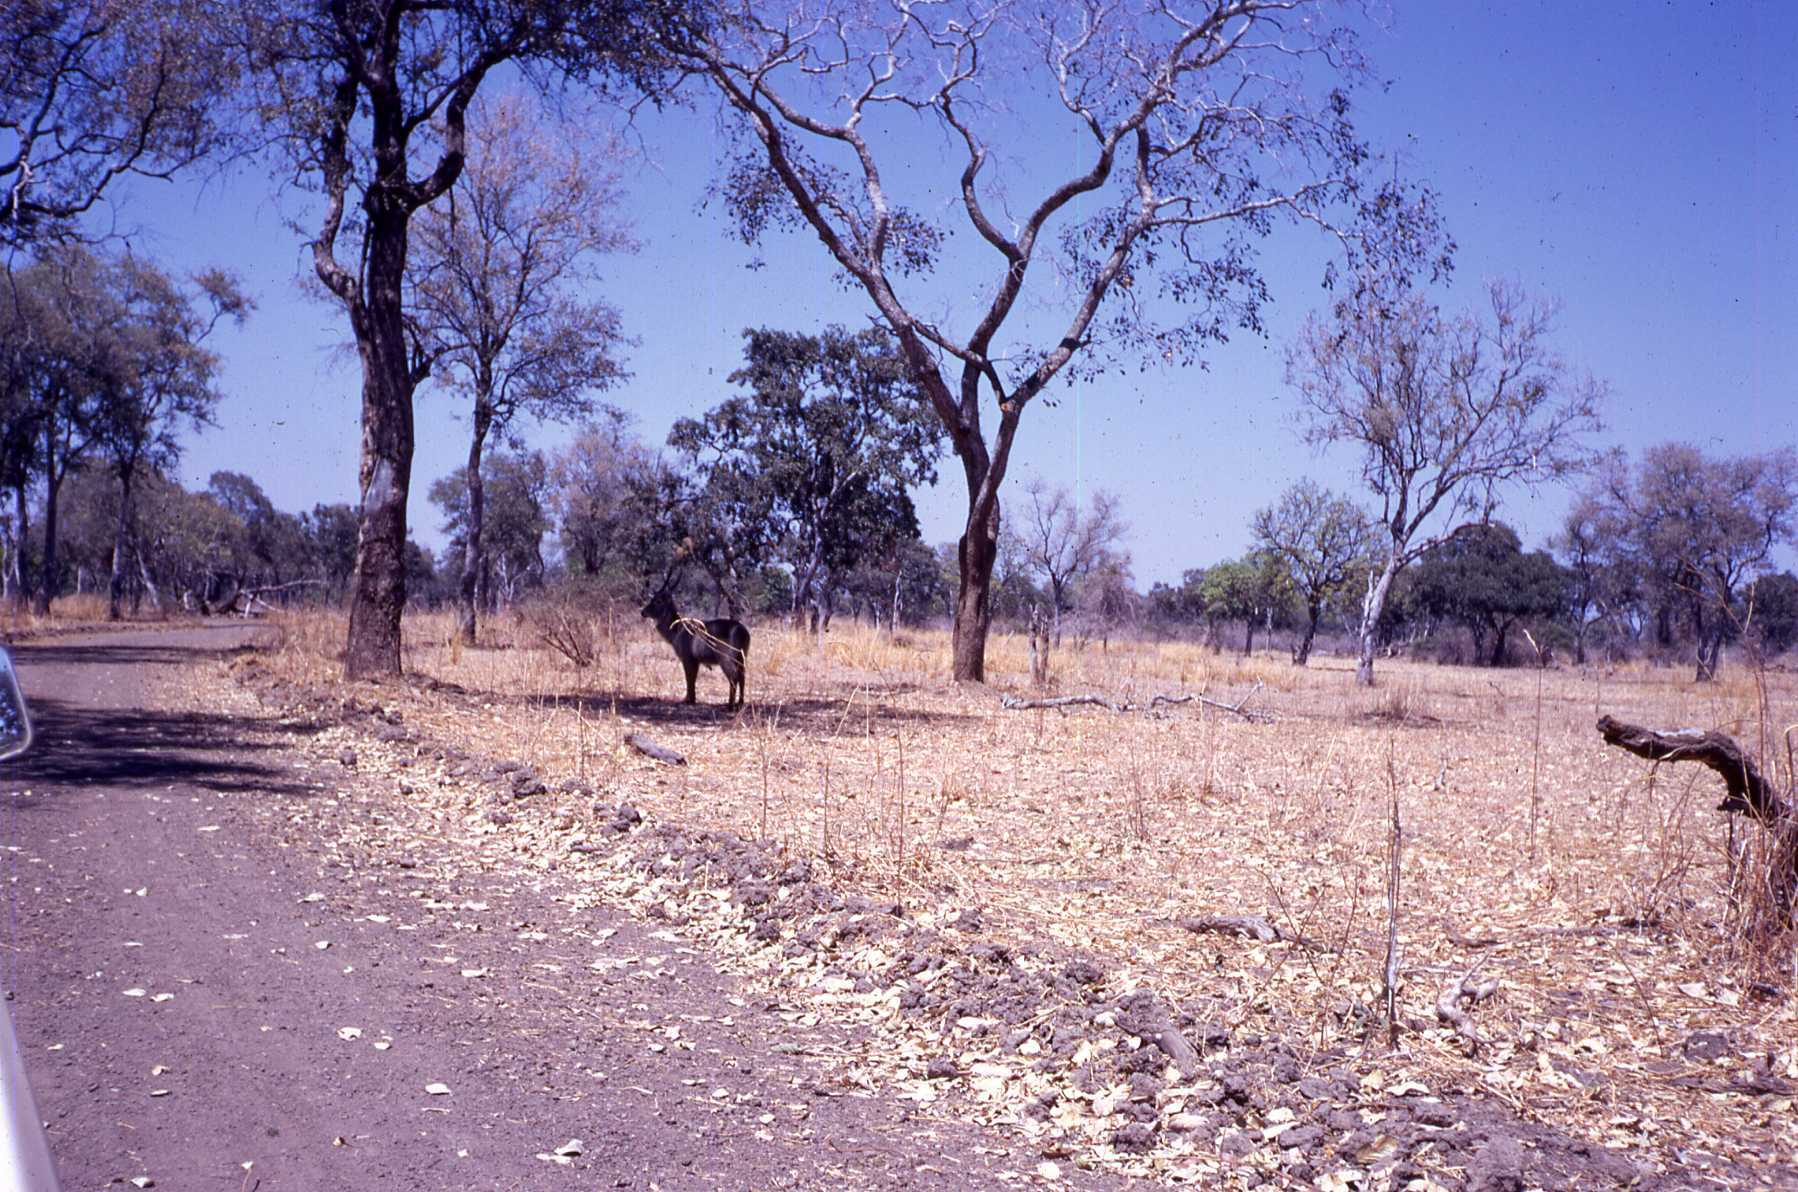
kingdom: Animalia
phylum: Chordata
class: Mammalia
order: Artiodactyla
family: Bovidae
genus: Kobus
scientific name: Kobus ellipsiprymnus
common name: Waterbuck
